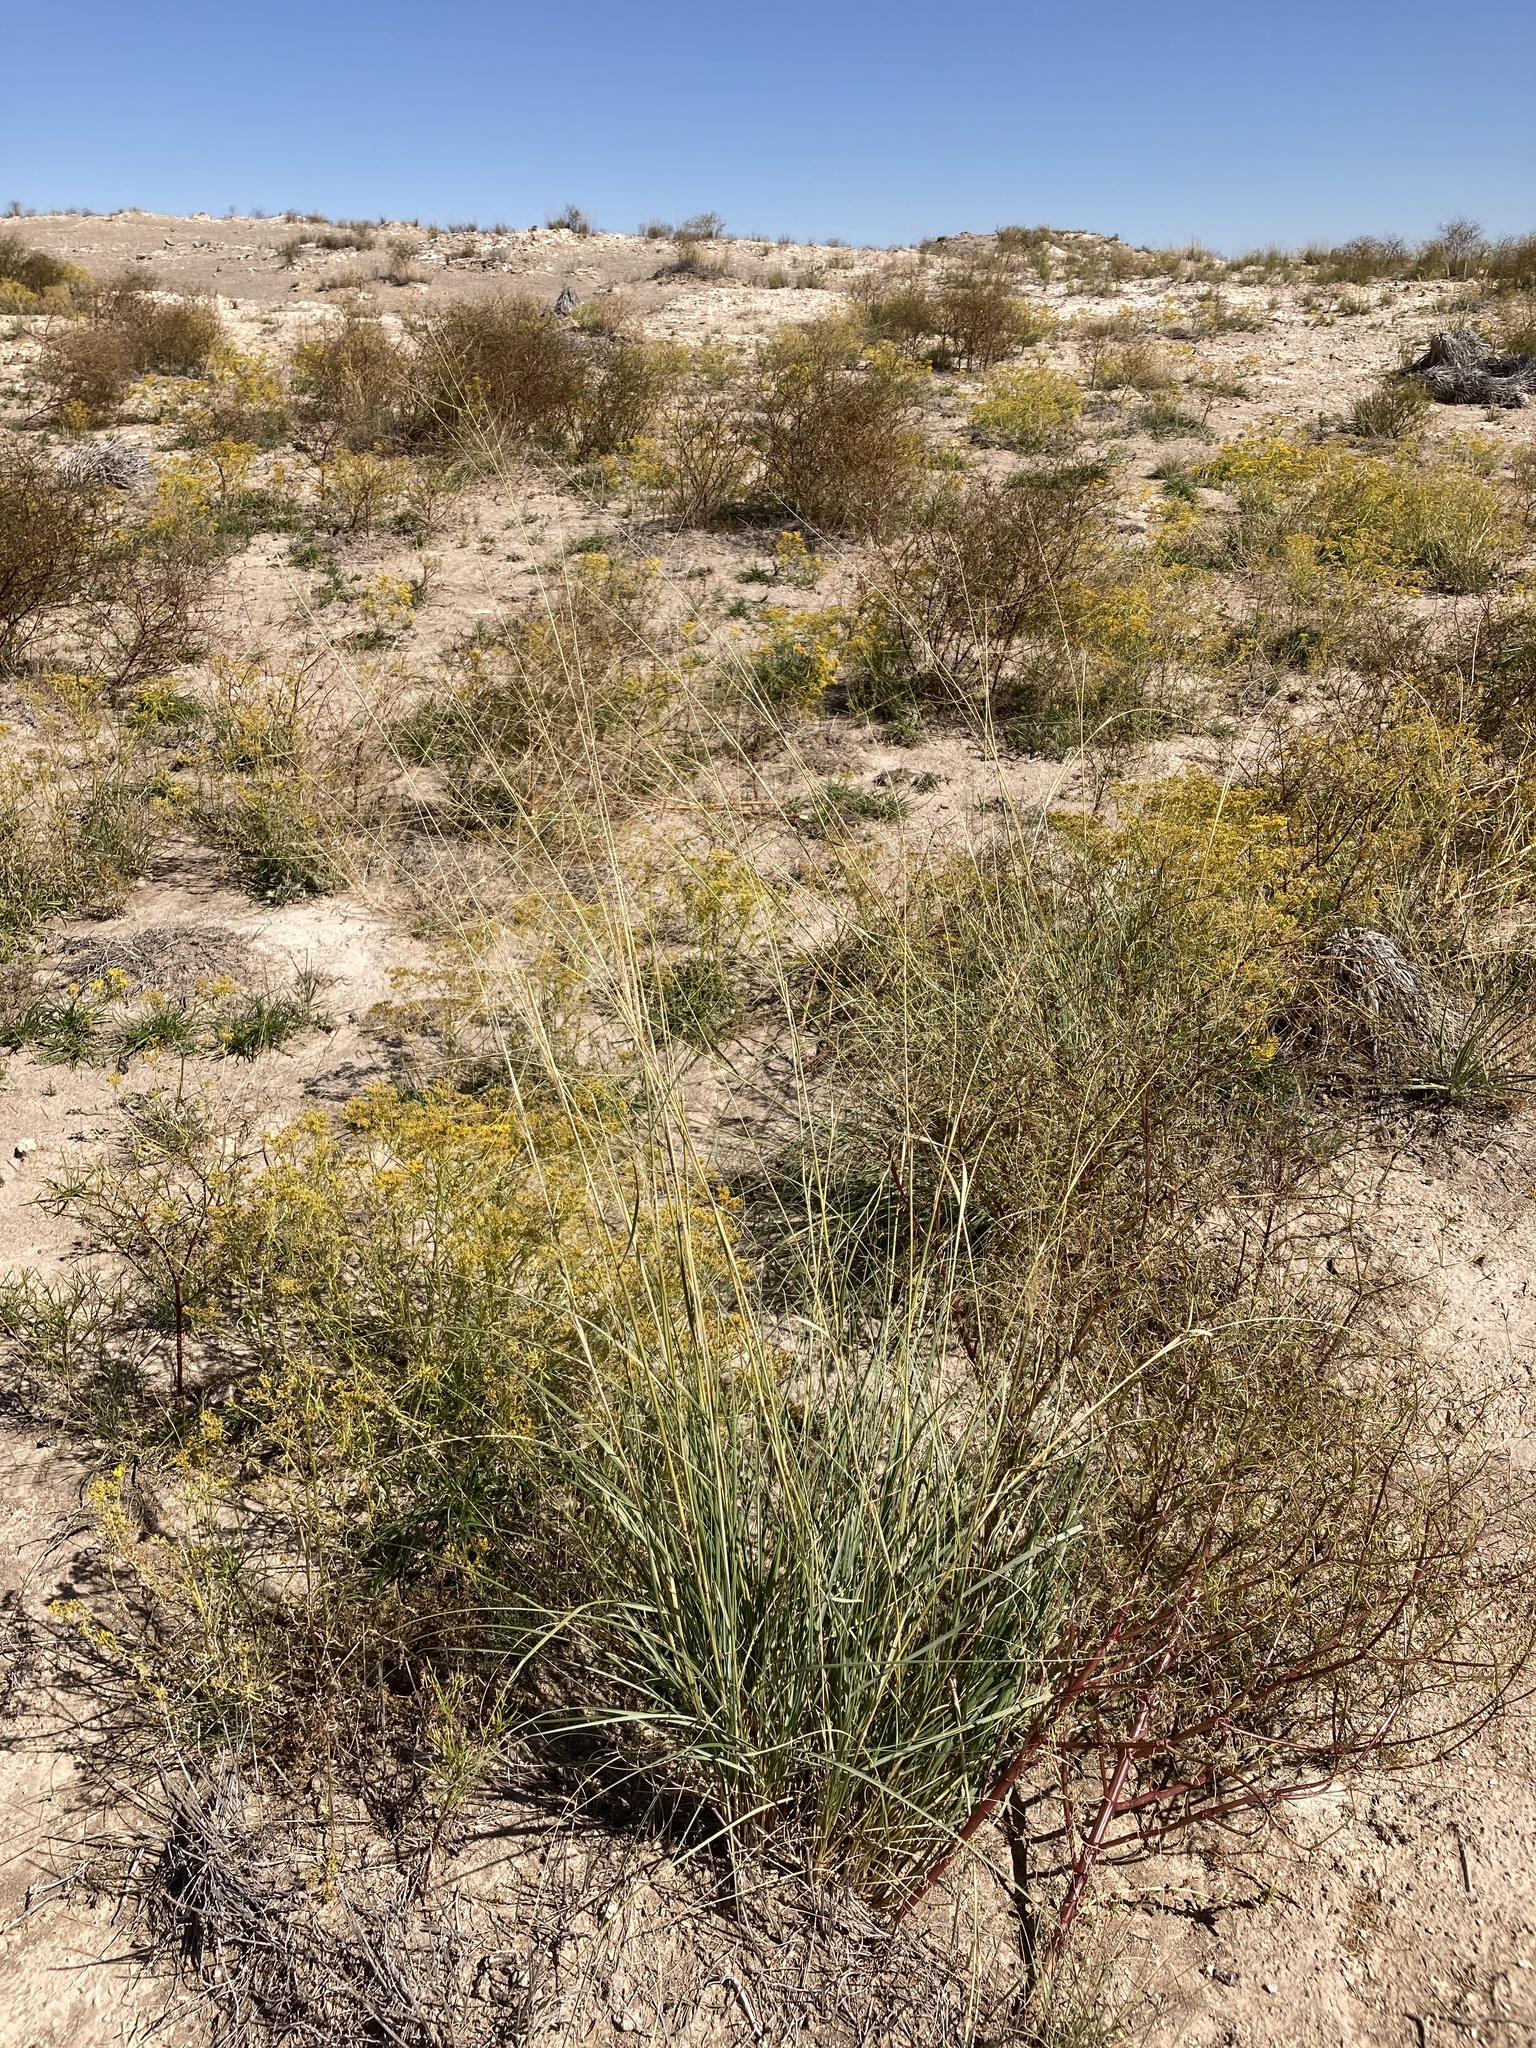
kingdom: Plantae
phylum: Tracheophyta
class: Liliopsida
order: Poales
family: Poaceae
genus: Sporobolus
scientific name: Sporobolus airoides
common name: Alkali sacaton
